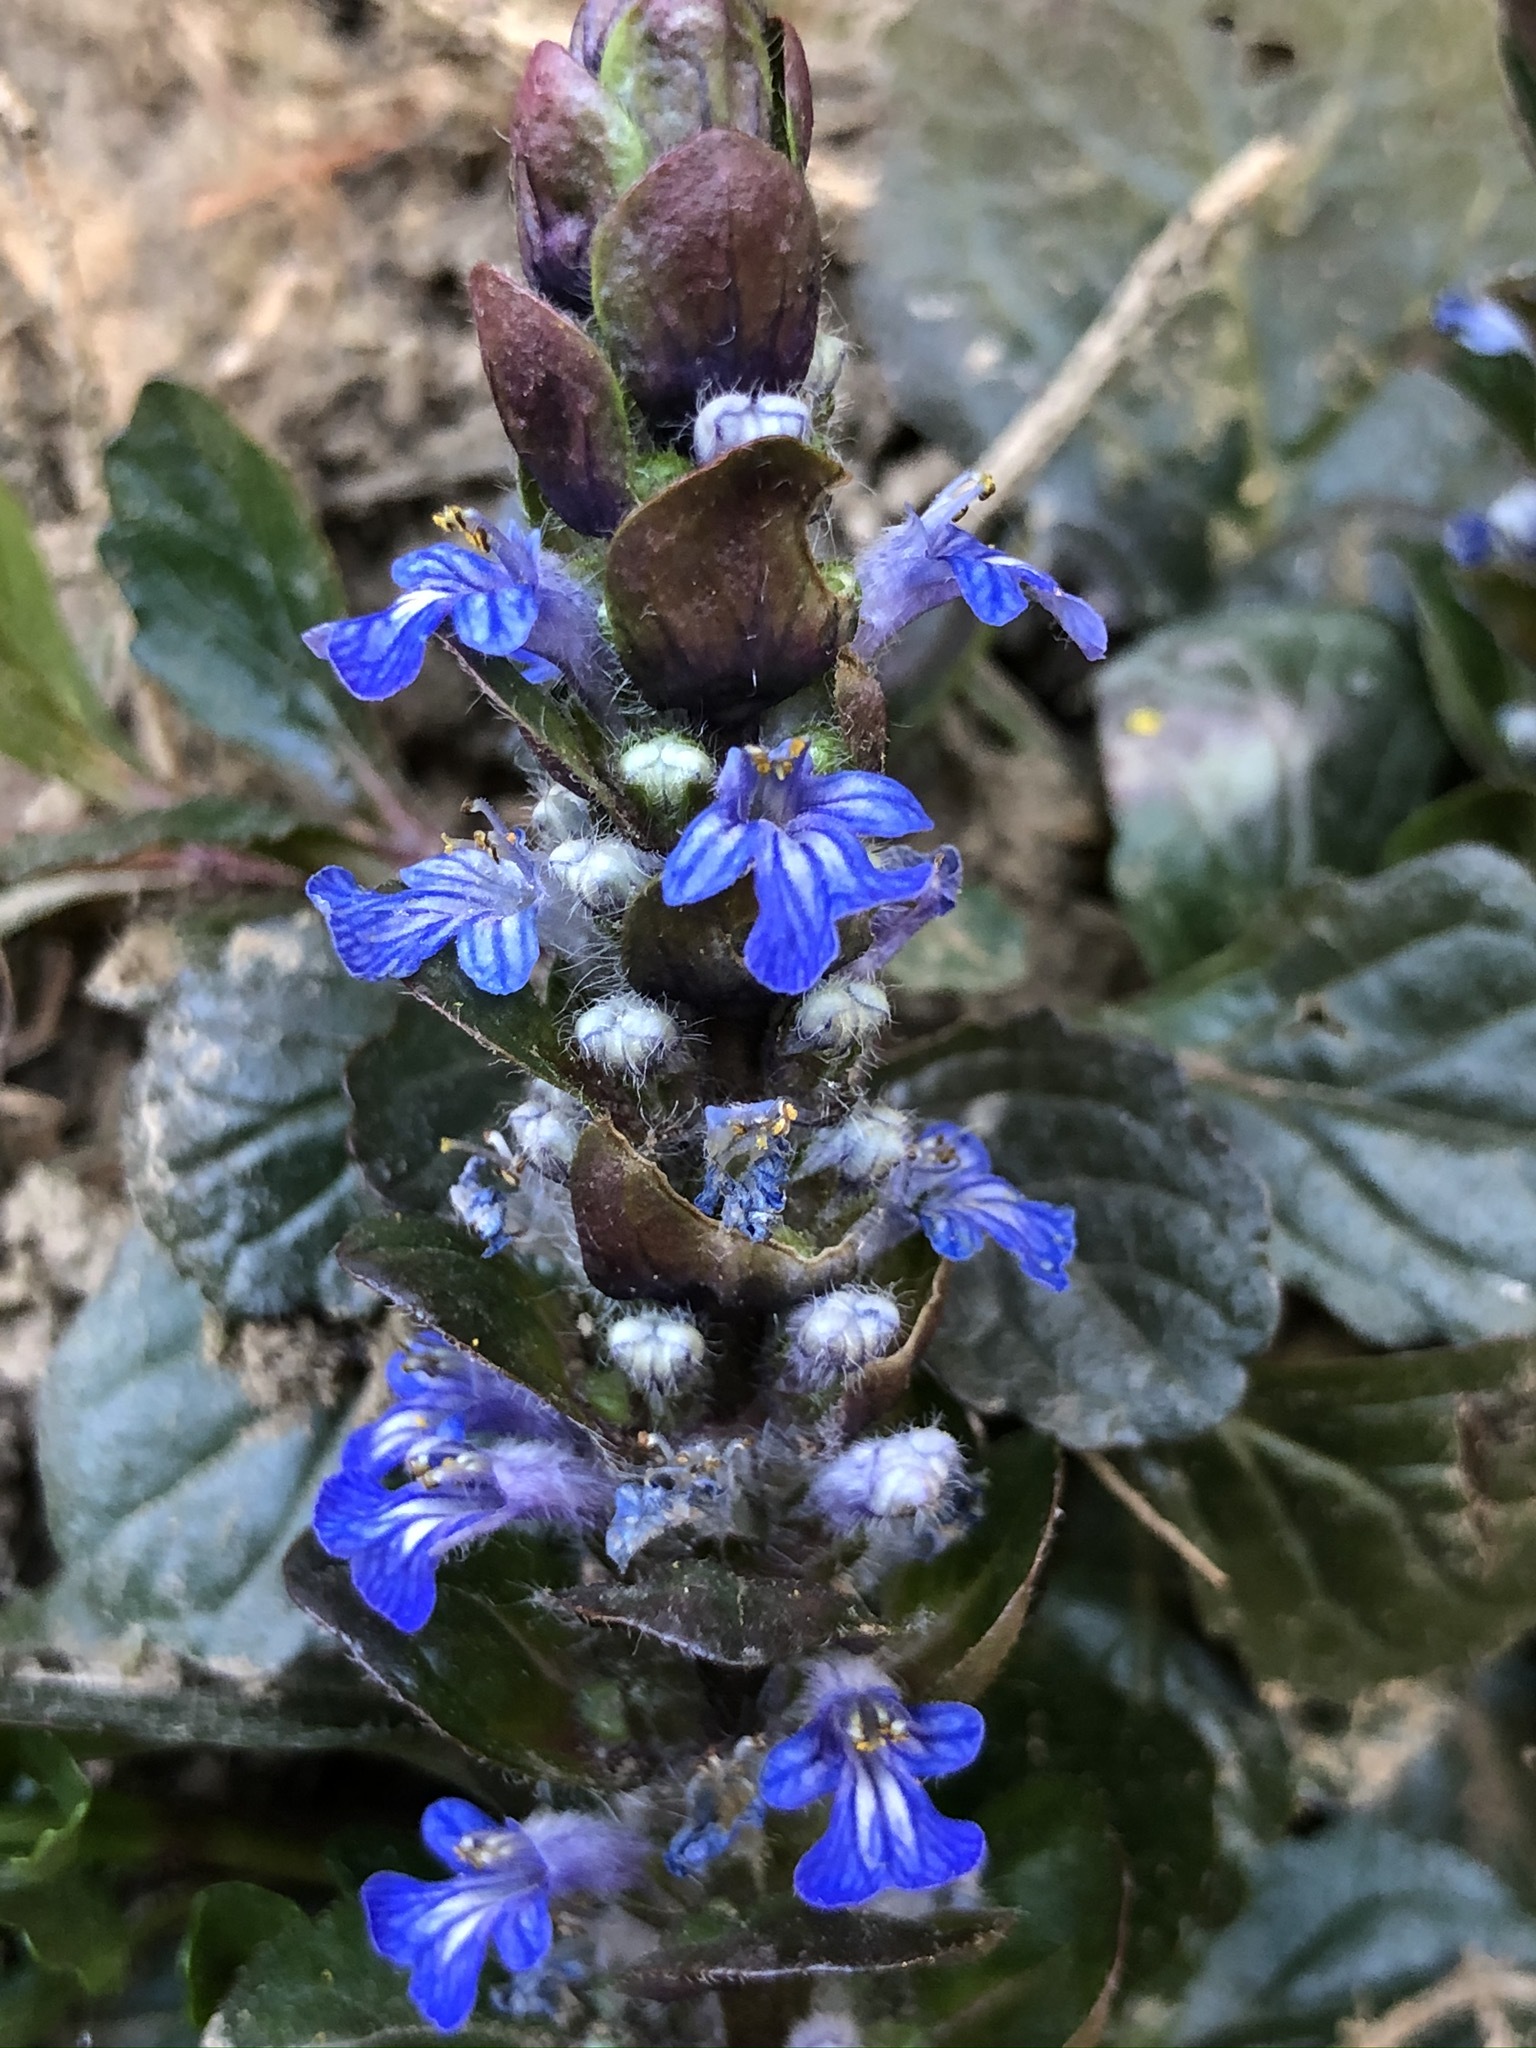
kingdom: Plantae
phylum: Tracheophyta
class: Magnoliopsida
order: Lamiales
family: Lamiaceae
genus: Ajuga
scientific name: Ajuga reptans
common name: Bugle
